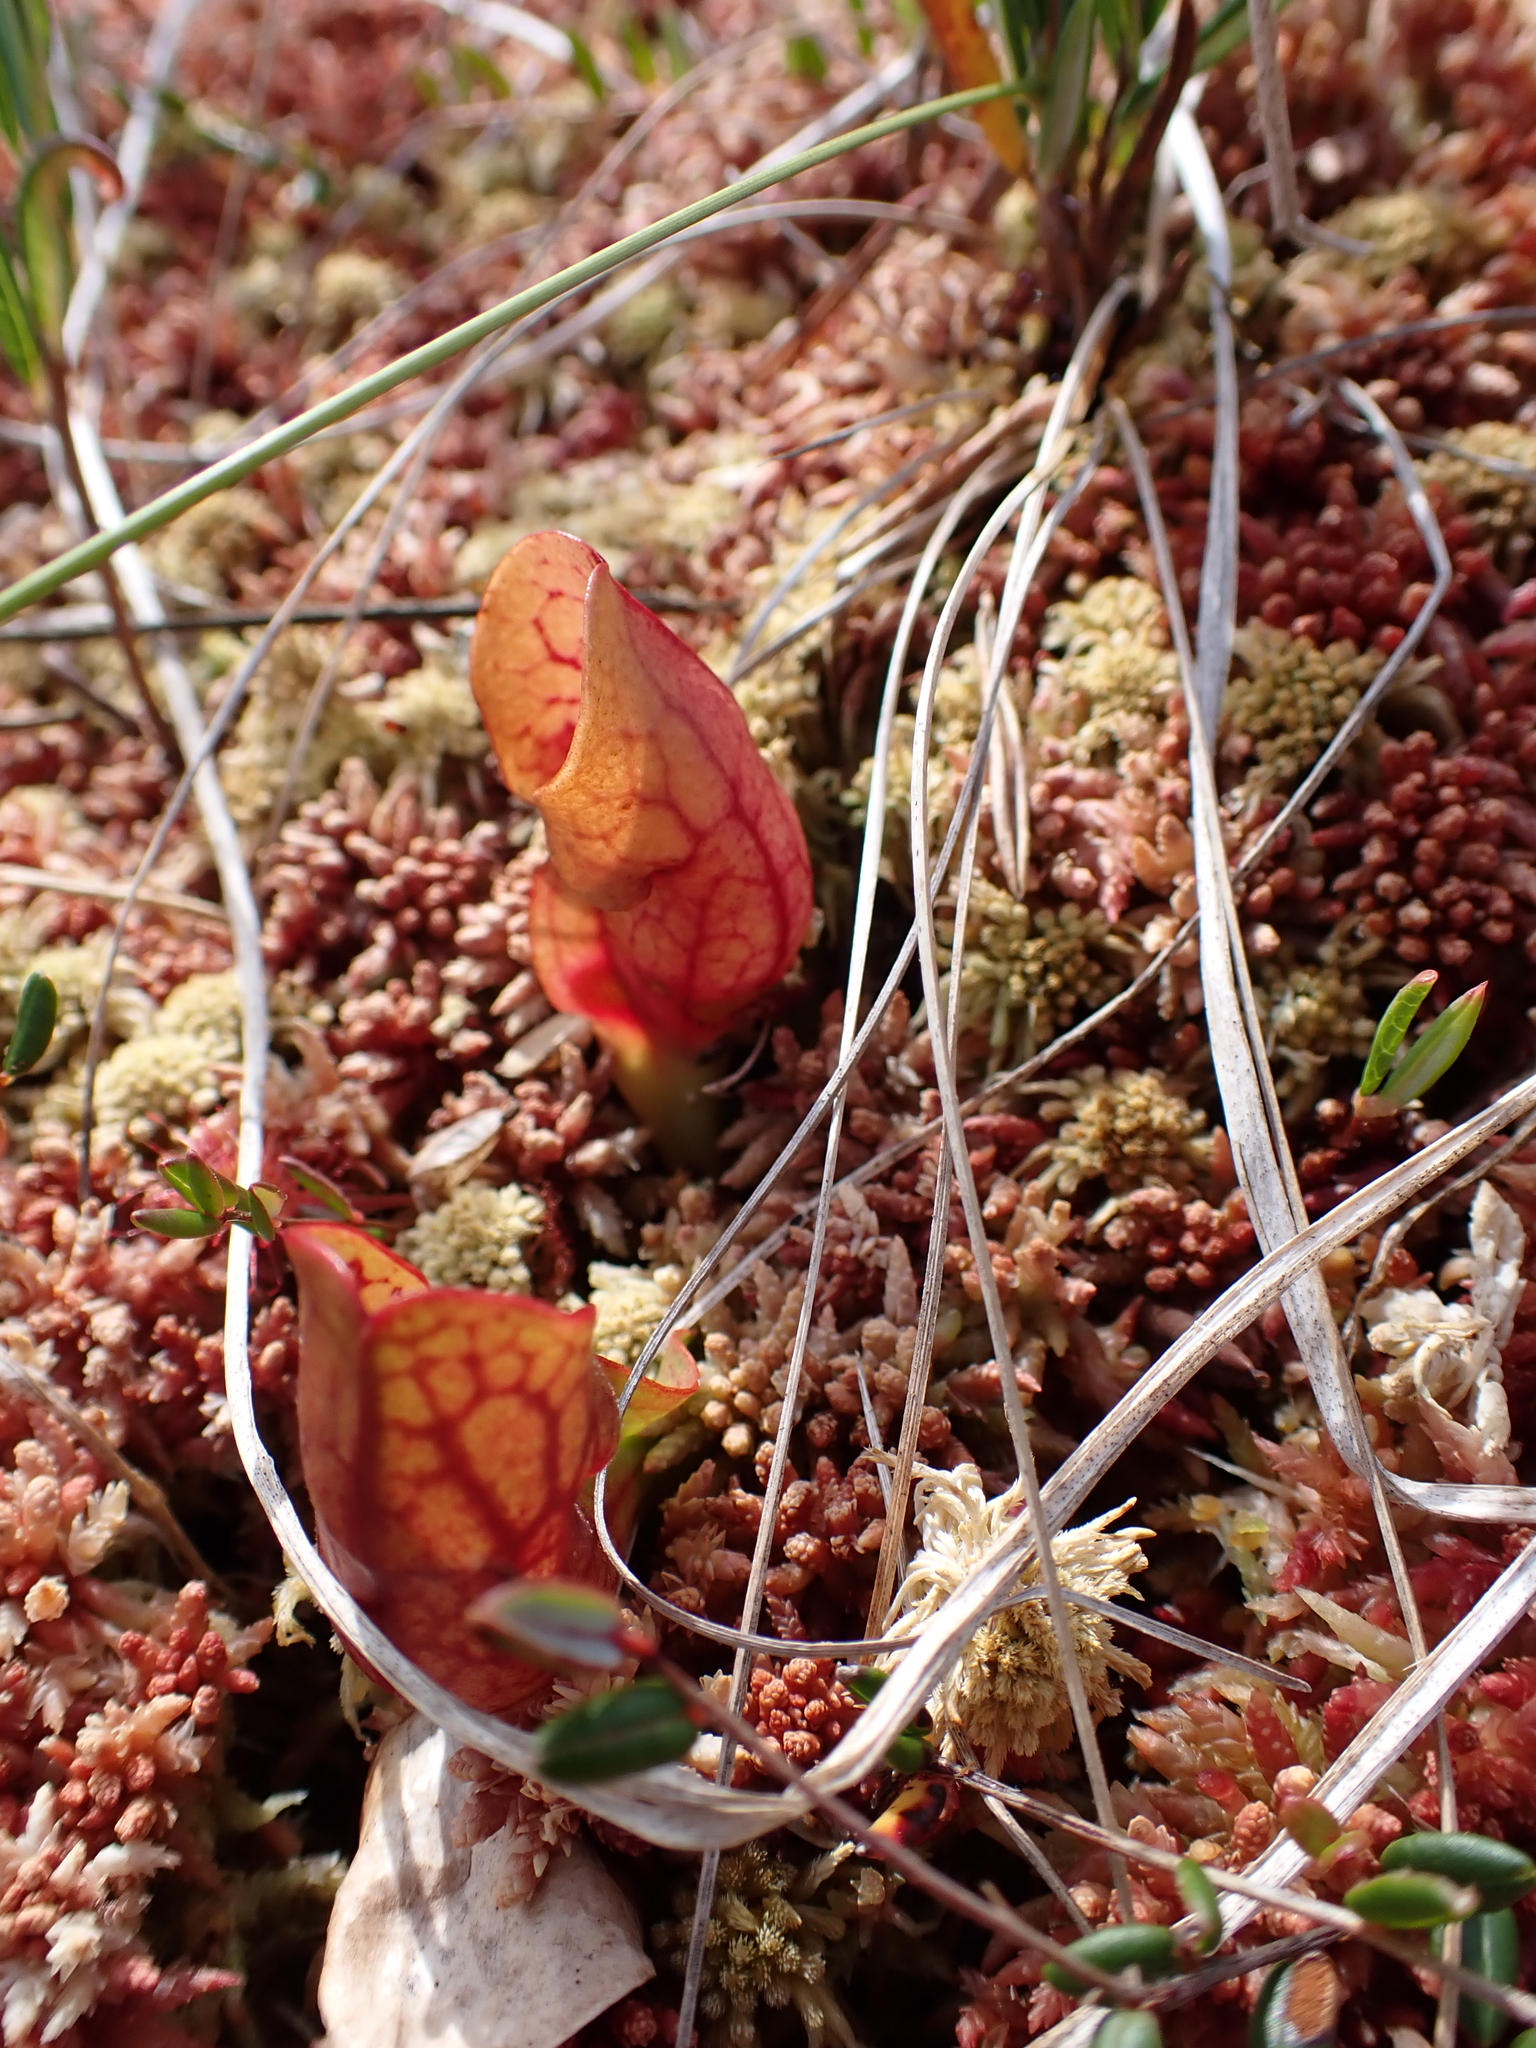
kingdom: Plantae
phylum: Tracheophyta
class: Magnoliopsida
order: Ericales
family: Sarraceniaceae
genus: Sarracenia
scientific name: Sarracenia purpurea
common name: Pitcherplant
